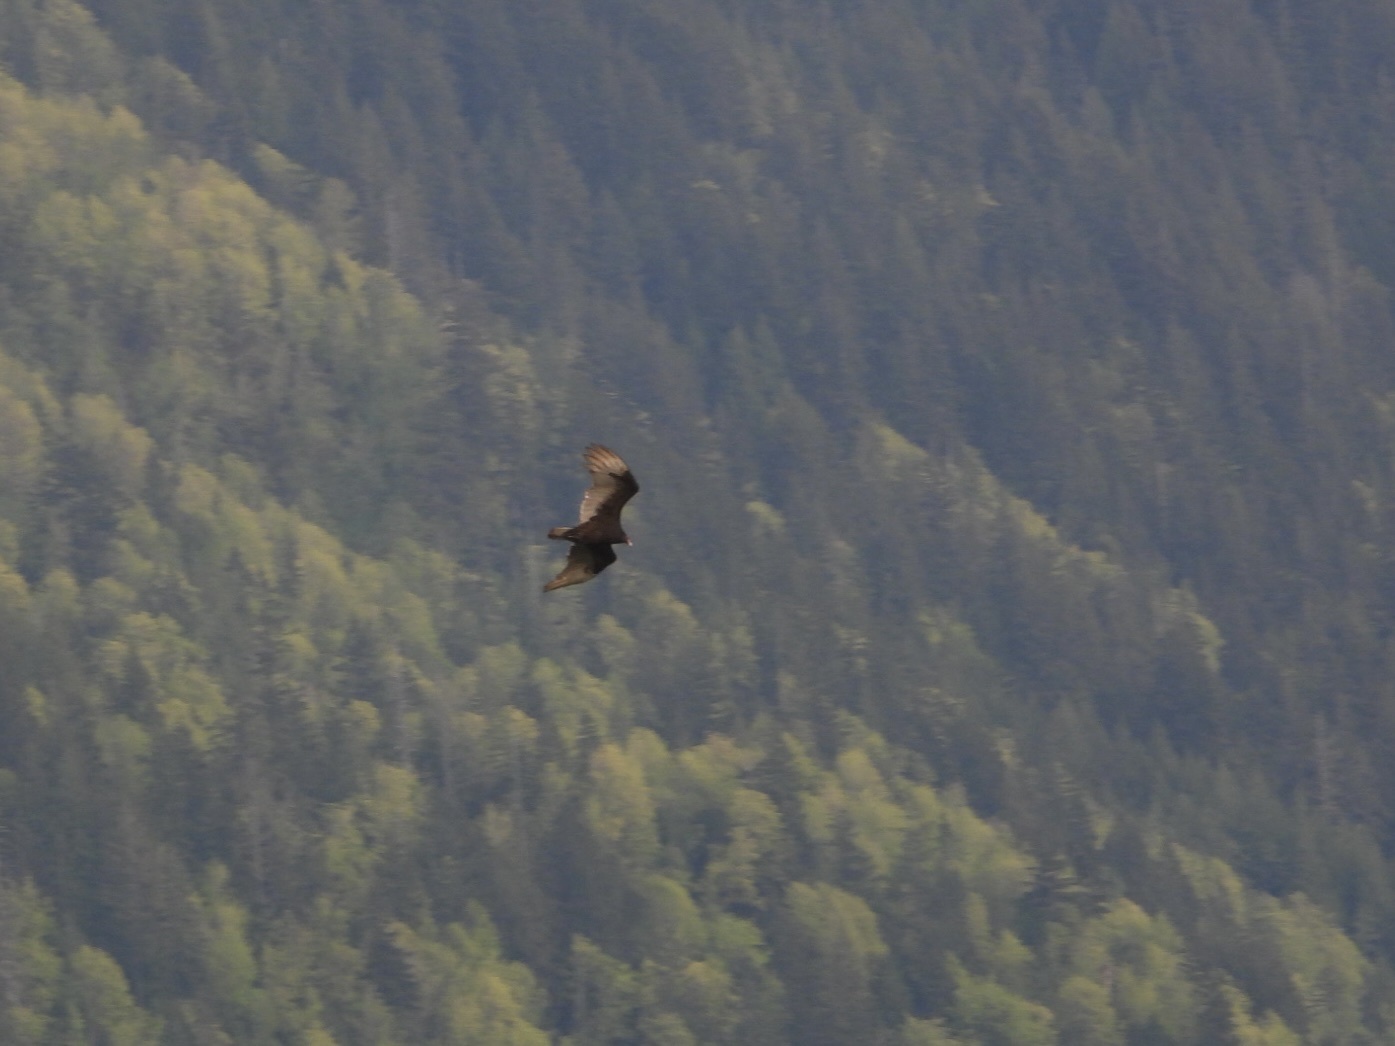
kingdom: Animalia
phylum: Chordata
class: Aves
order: Accipitriformes
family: Cathartidae
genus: Cathartes
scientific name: Cathartes aura
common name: Turkey vulture
